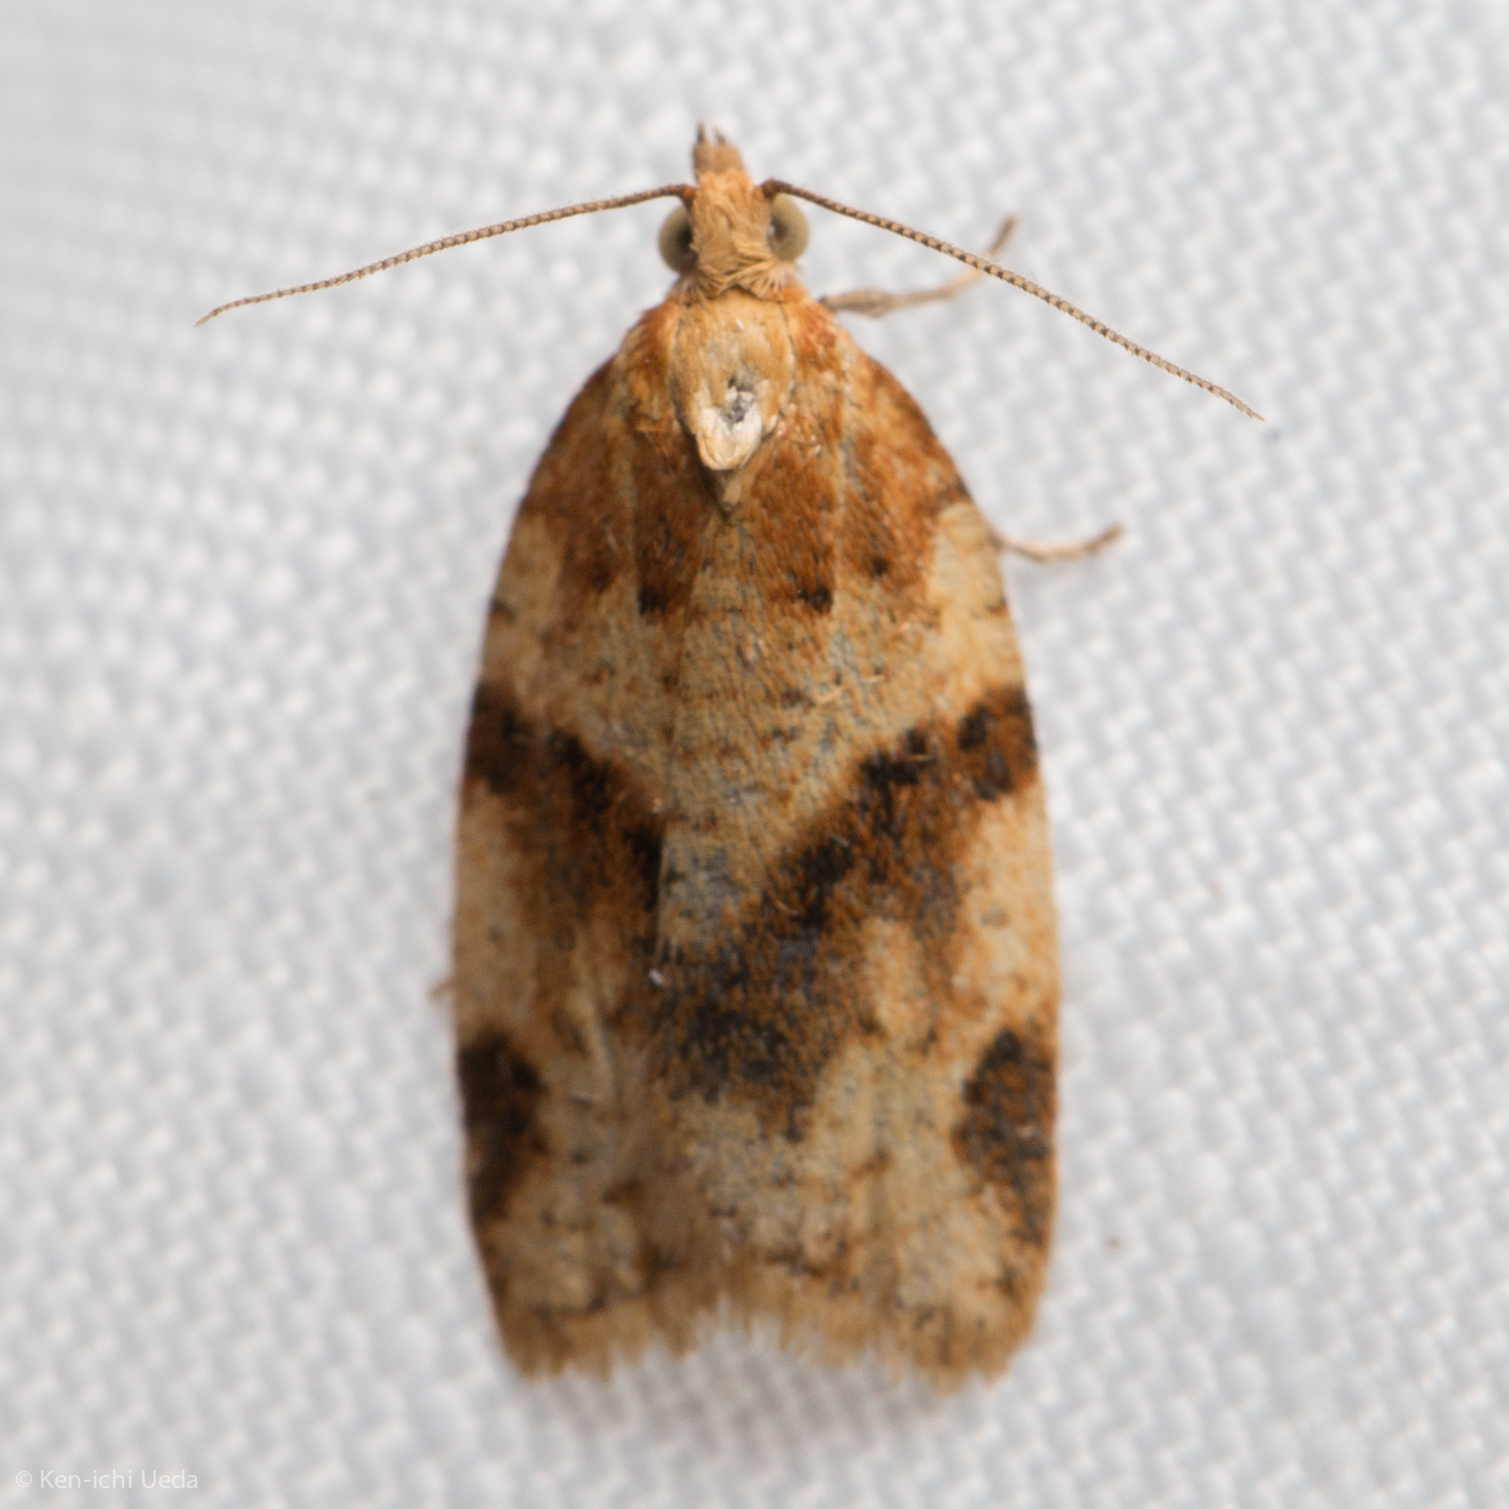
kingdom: Animalia
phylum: Arthropoda
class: Insecta
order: Lepidoptera
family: Tortricidae
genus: Clepsis
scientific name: Clepsis fucana
